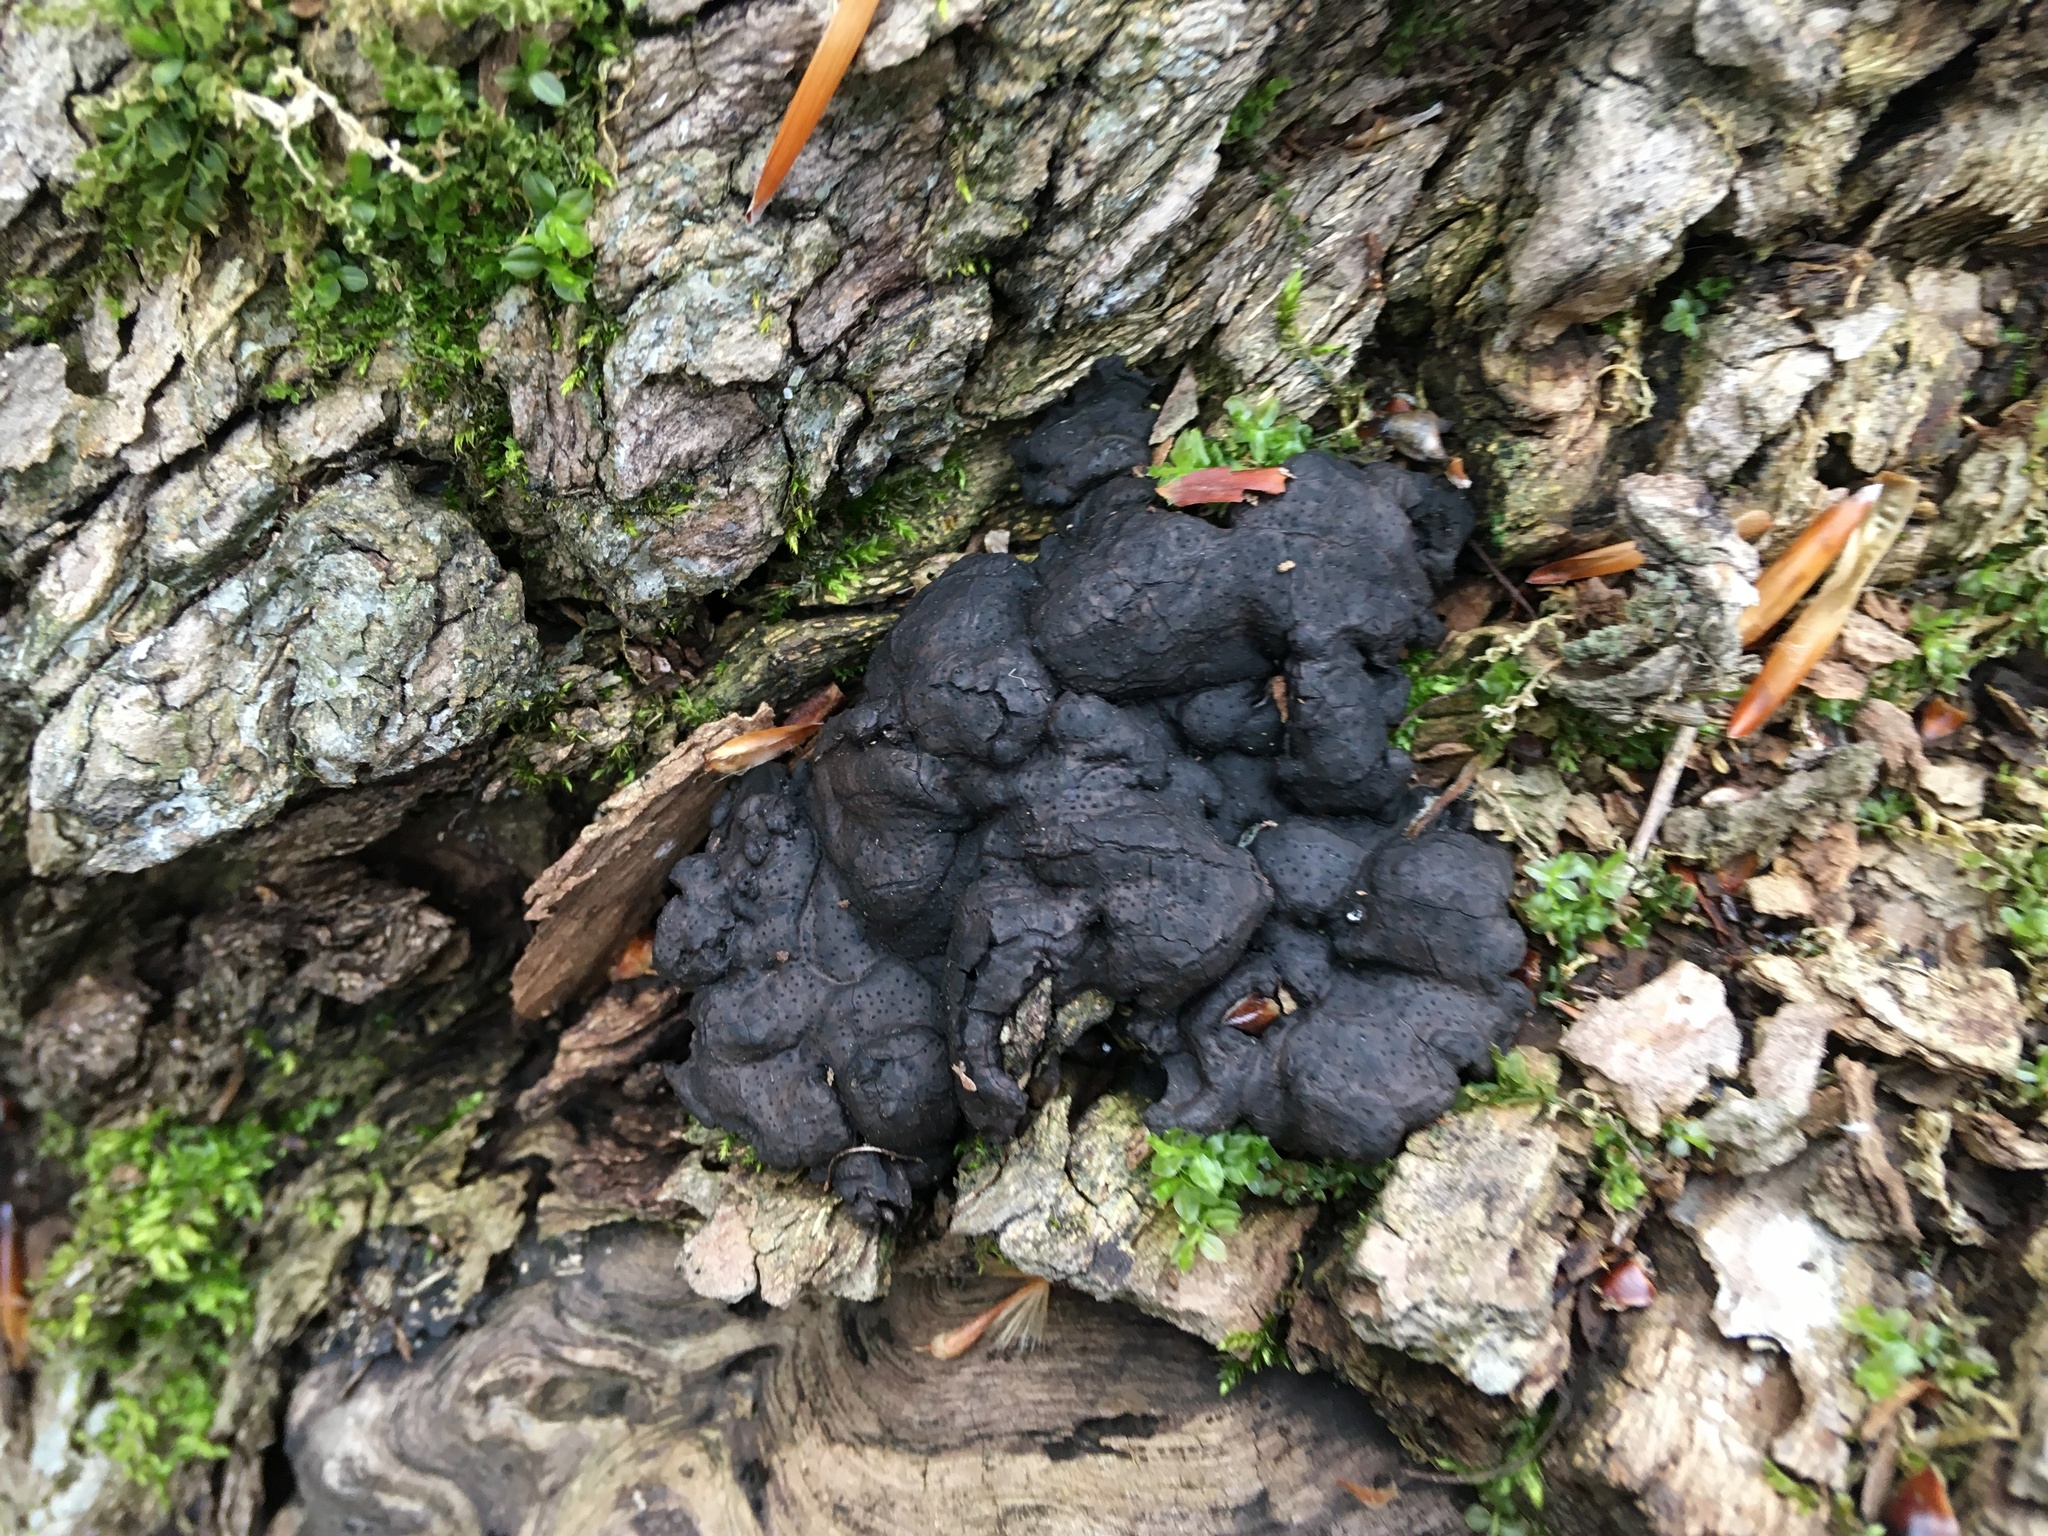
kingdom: Fungi
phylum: Ascomycota
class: Sordariomycetes
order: Xylariales
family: Xylariaceae
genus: Kretzschmaria
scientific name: Kretzschmaria deusta
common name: Brittle cinder
